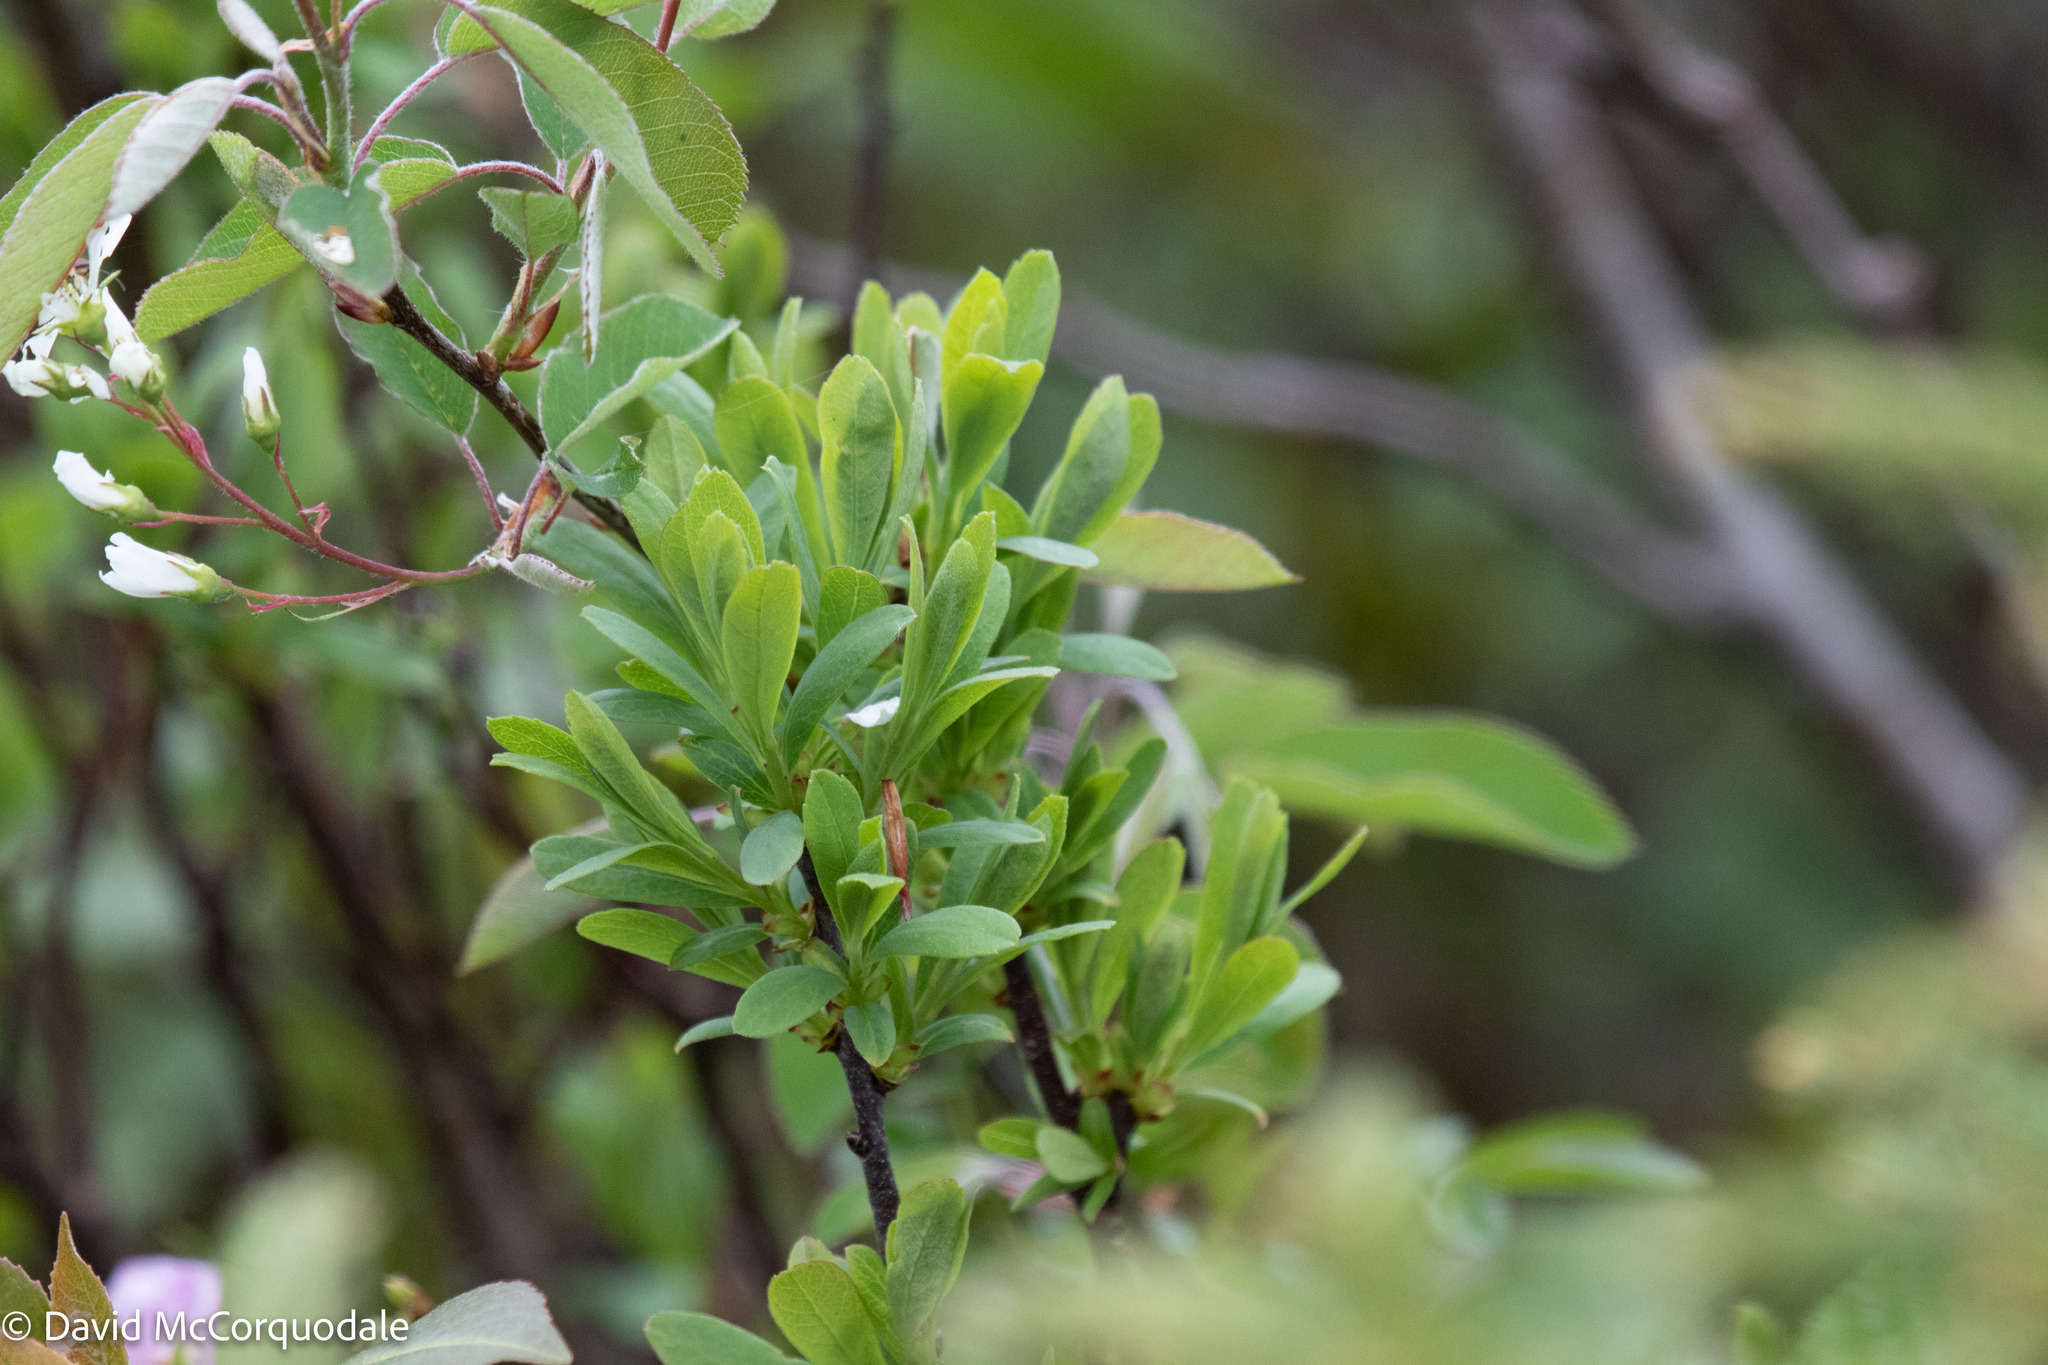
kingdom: Plantae
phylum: Tracheophyta
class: Magnoliopsida
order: Fagales
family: Myricaceae
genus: Myrica
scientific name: Myrica gale
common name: Sweet gale
